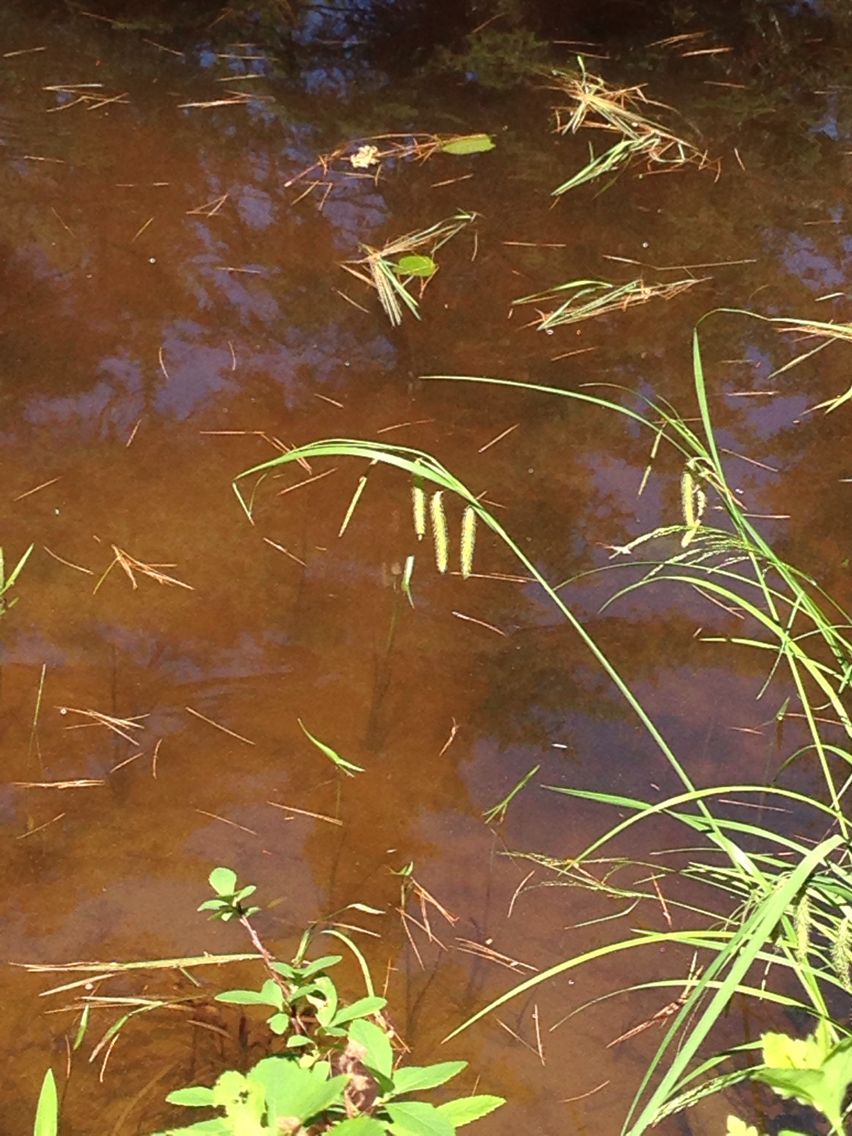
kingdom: Plantae
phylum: Tracheophyta
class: Liliopsida
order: Poales
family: Cyperaceae
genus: Carex
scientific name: Carex
